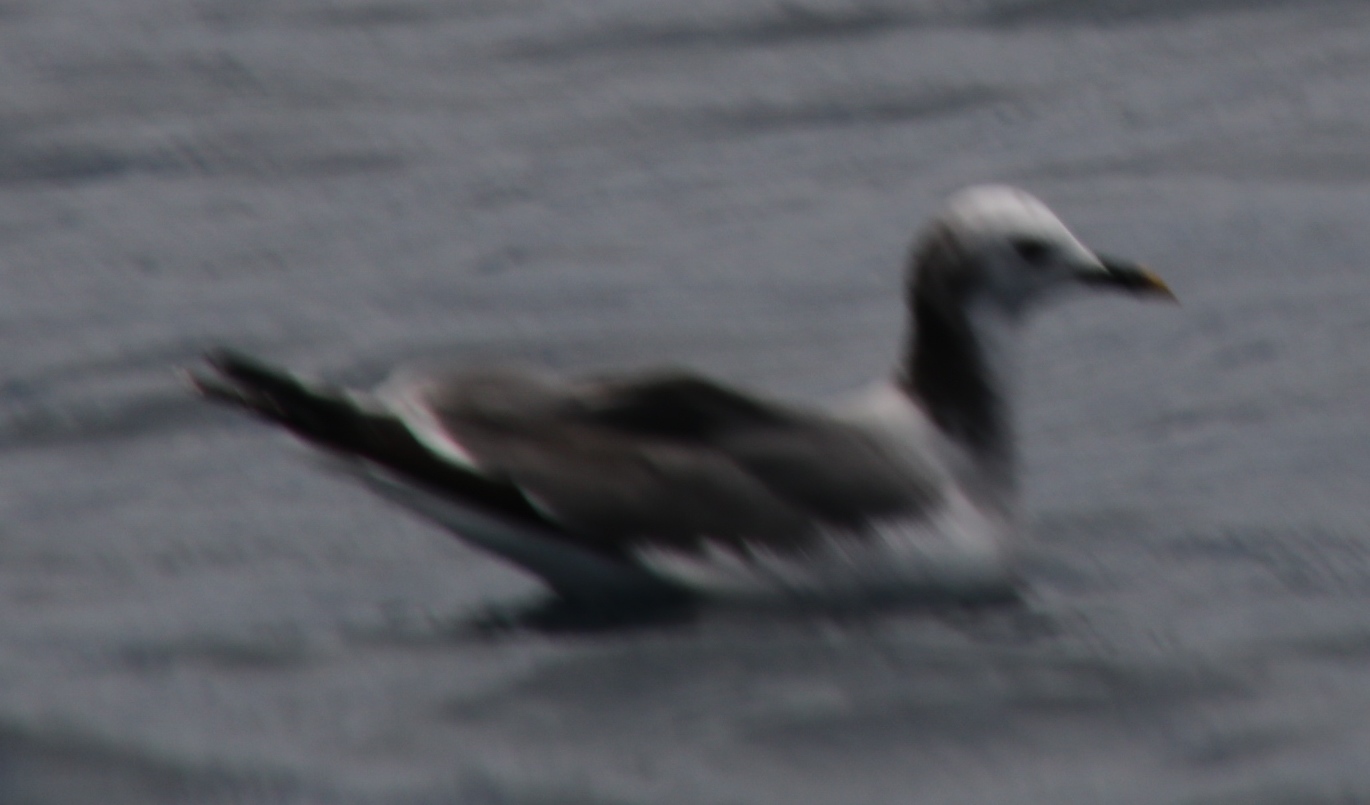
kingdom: Animalia
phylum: Chordata
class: Aves
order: Charadriiformes
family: Laridae
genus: Xema
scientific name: Xema sabini
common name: Sabine's gull
